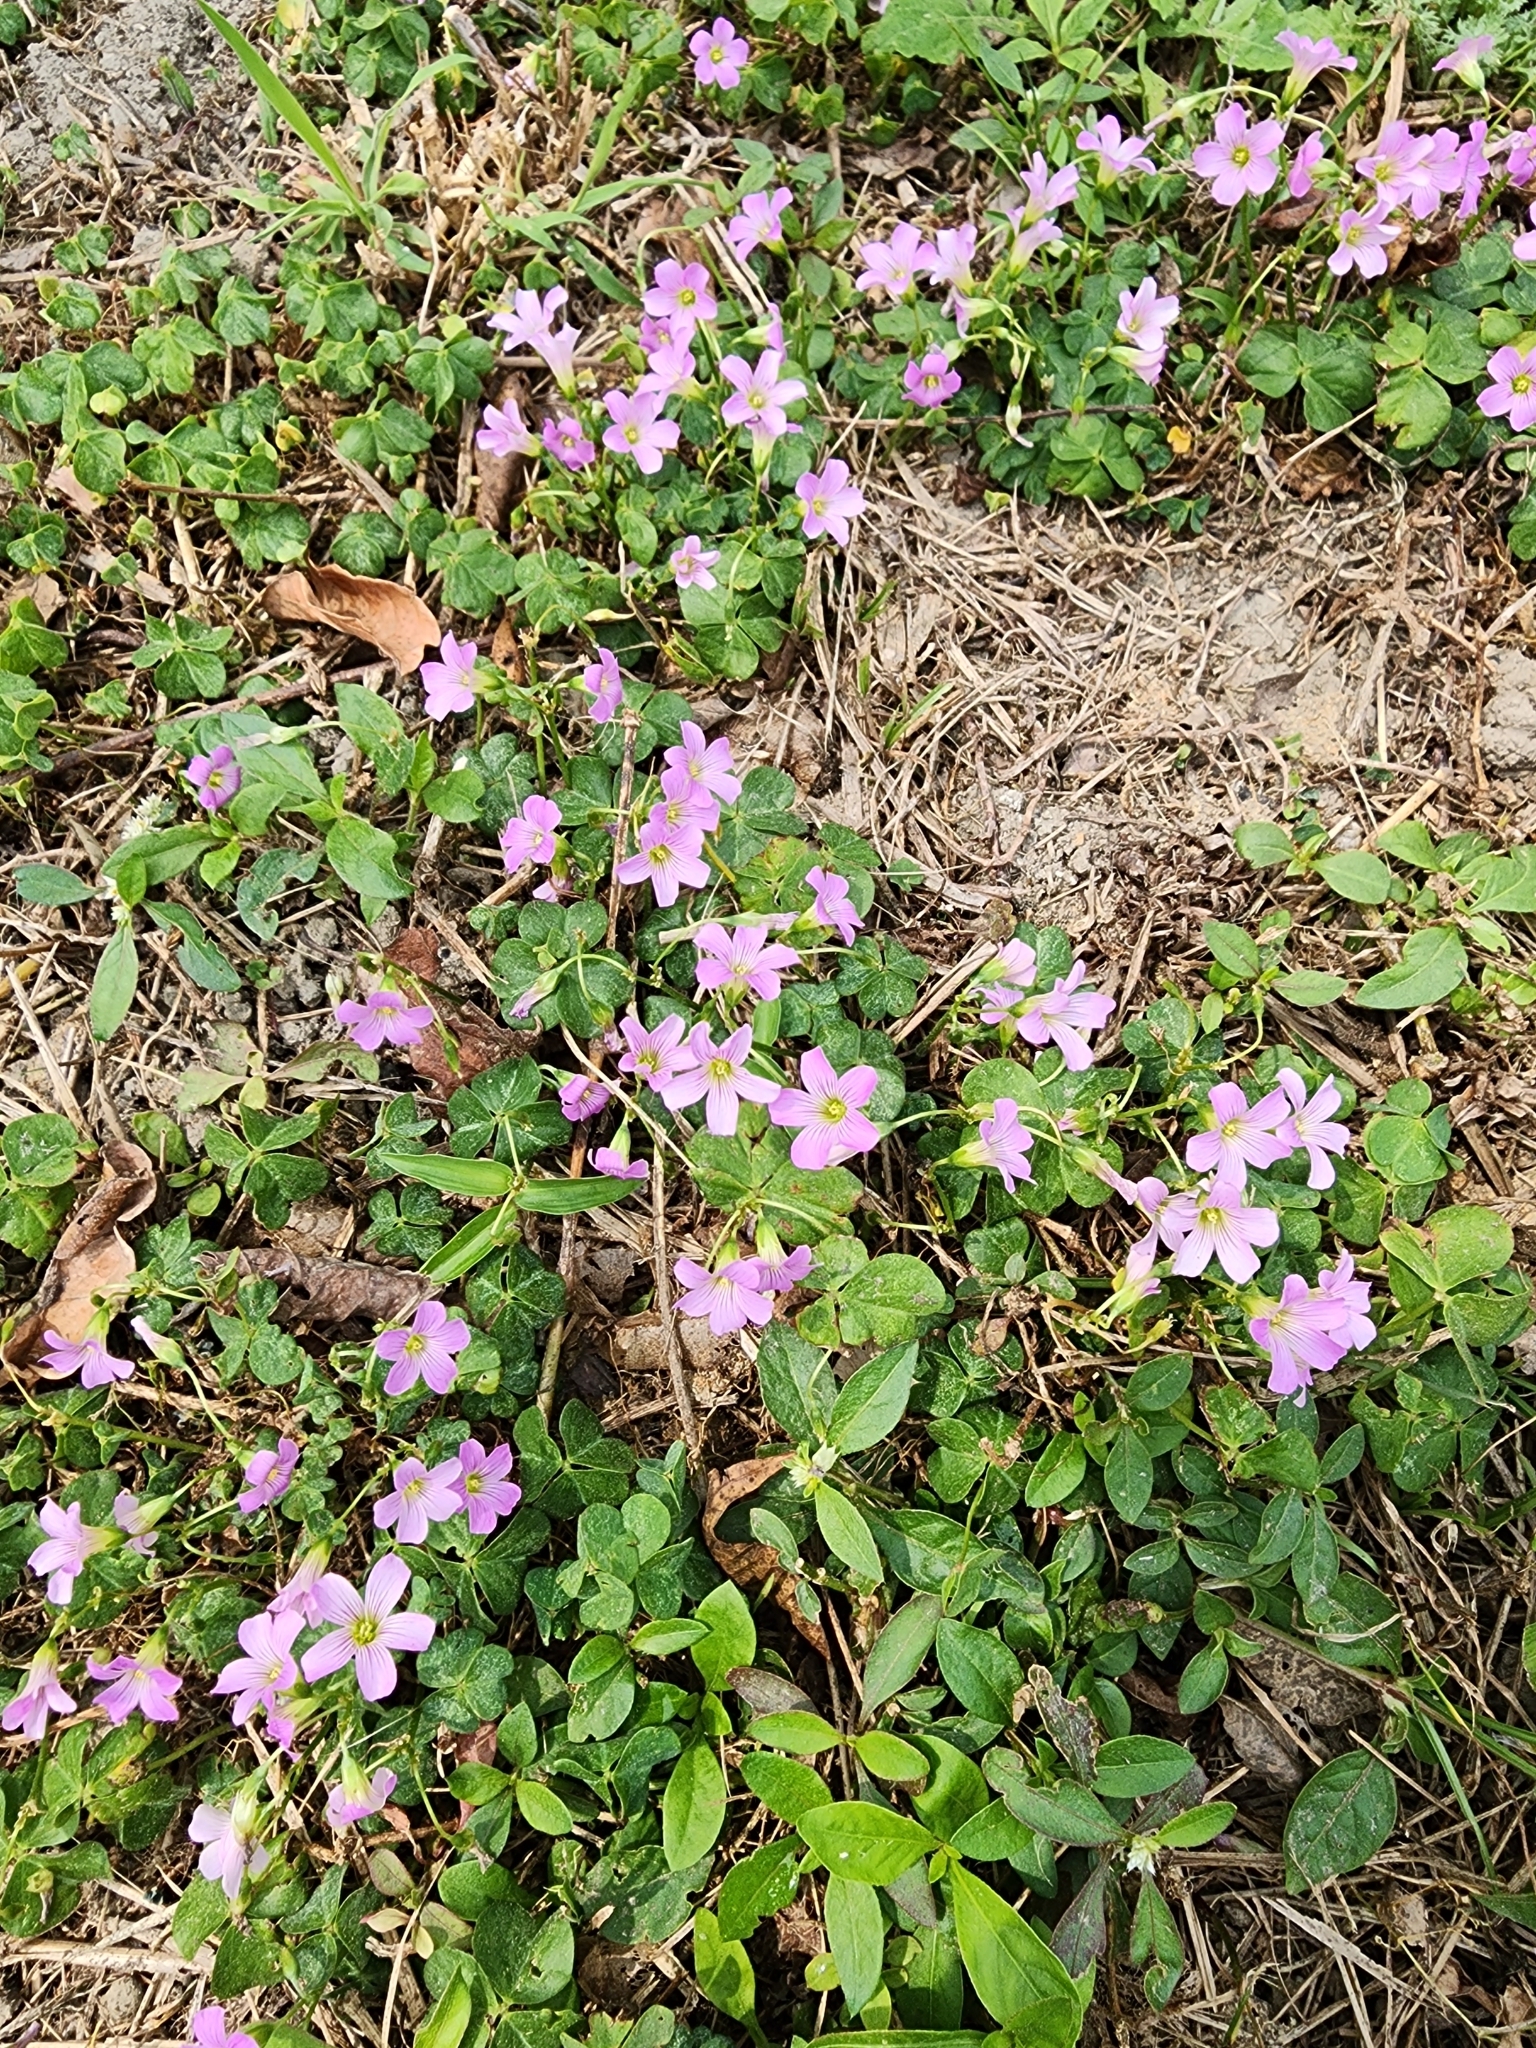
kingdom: Plantae
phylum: Tracheophyta
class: Magnoliopsida
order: Oxalidales
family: Oxalidaceae
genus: Oxalis
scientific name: Oxalis debilis
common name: Large-flowered pink-sorrel
